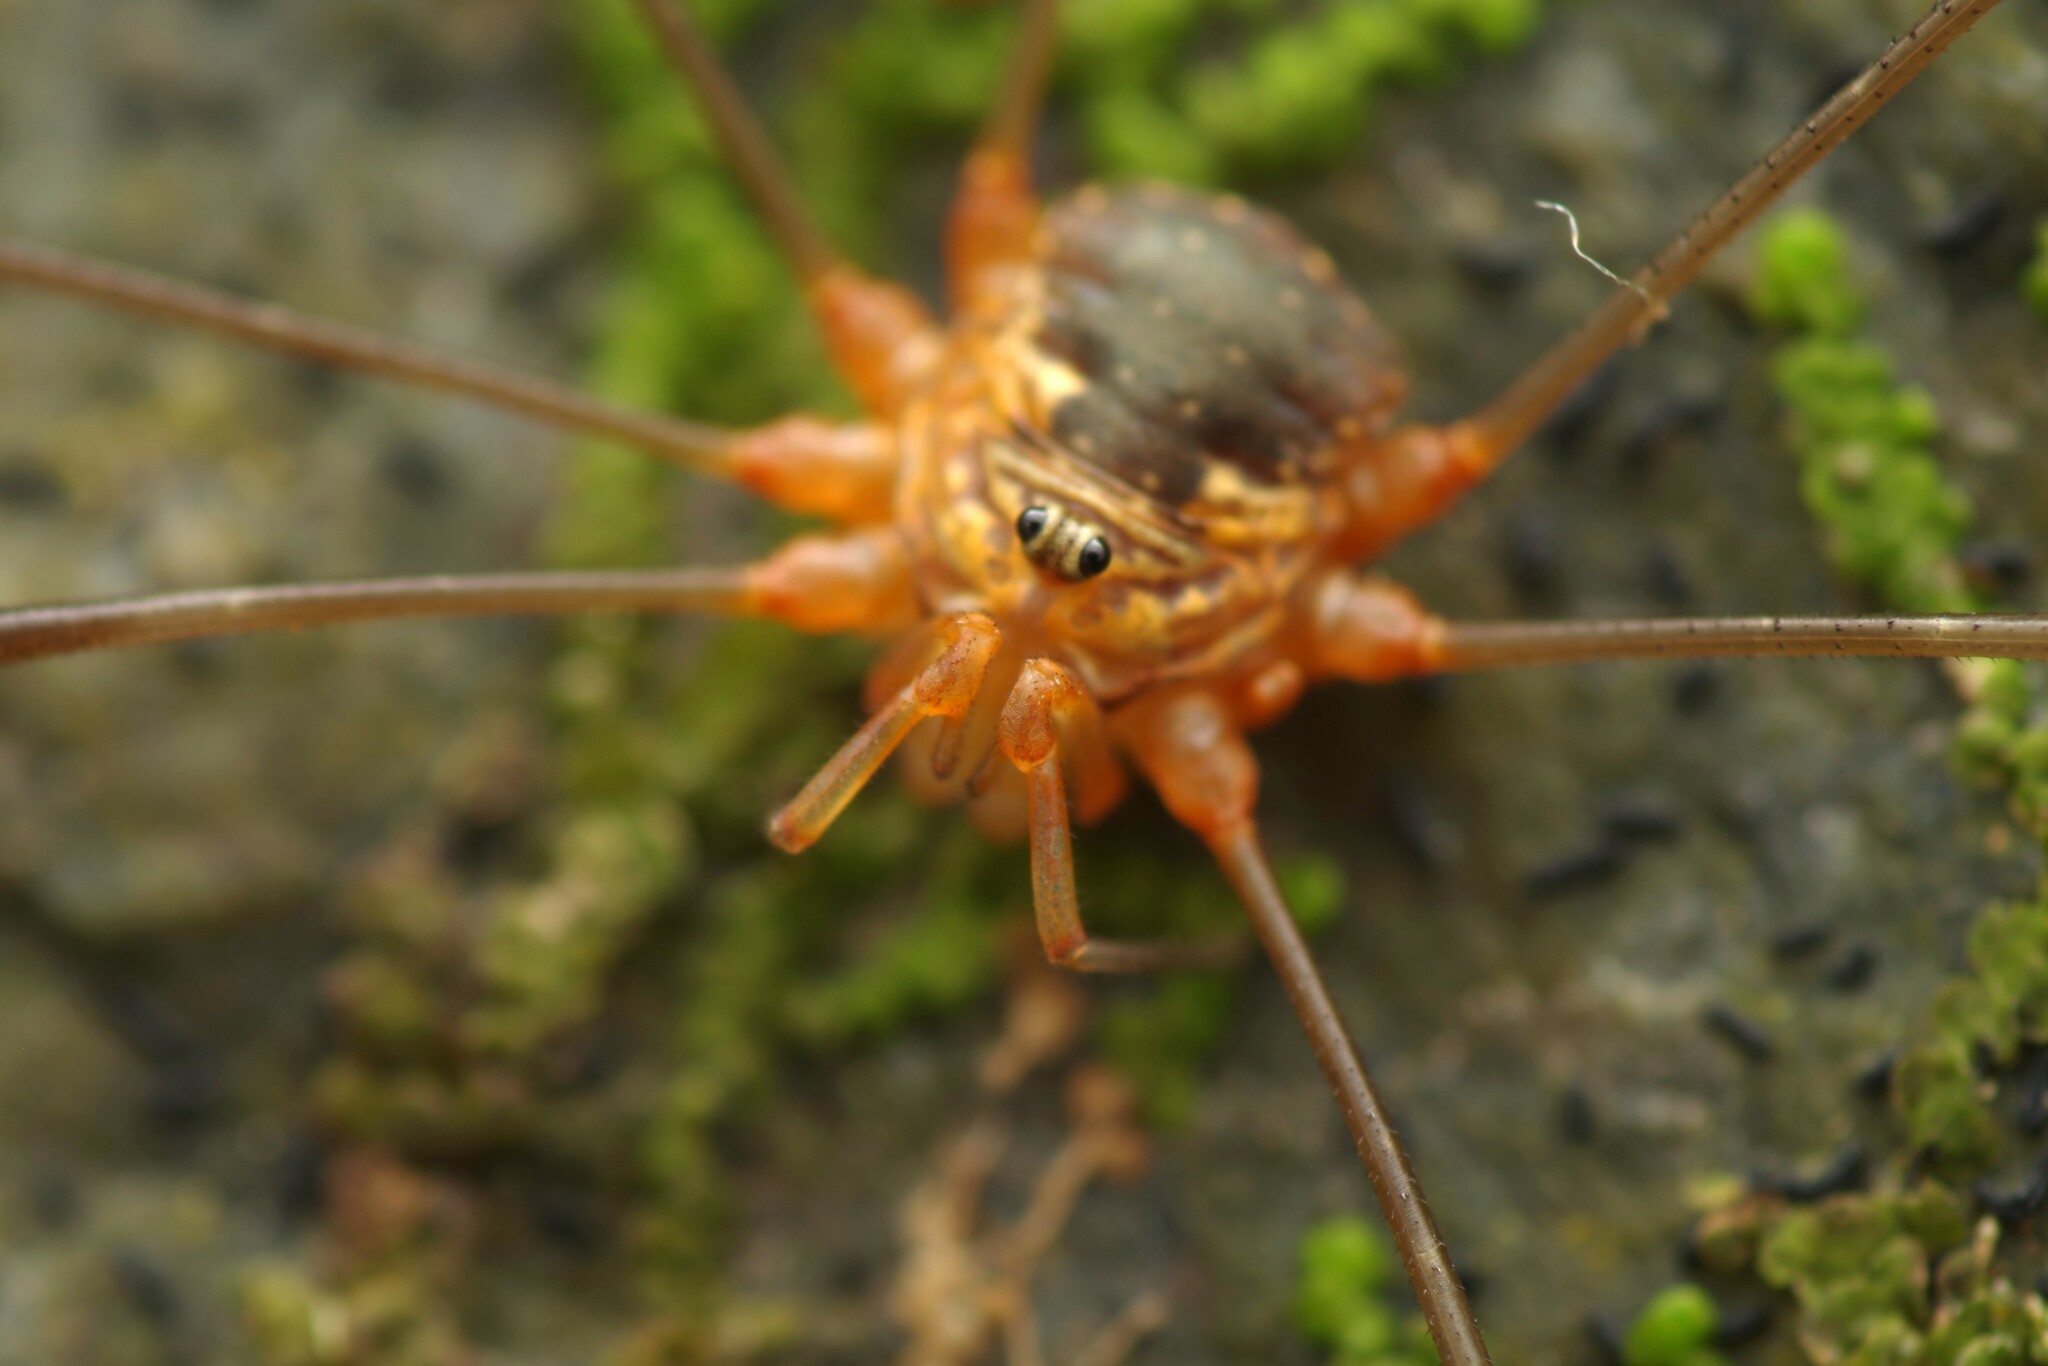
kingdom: Animalia
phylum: Arthropoda
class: Arachnida
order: Opiliones
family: Phalangiidae
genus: Dicranopalpus
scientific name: Dicranopalpus catariegensis
